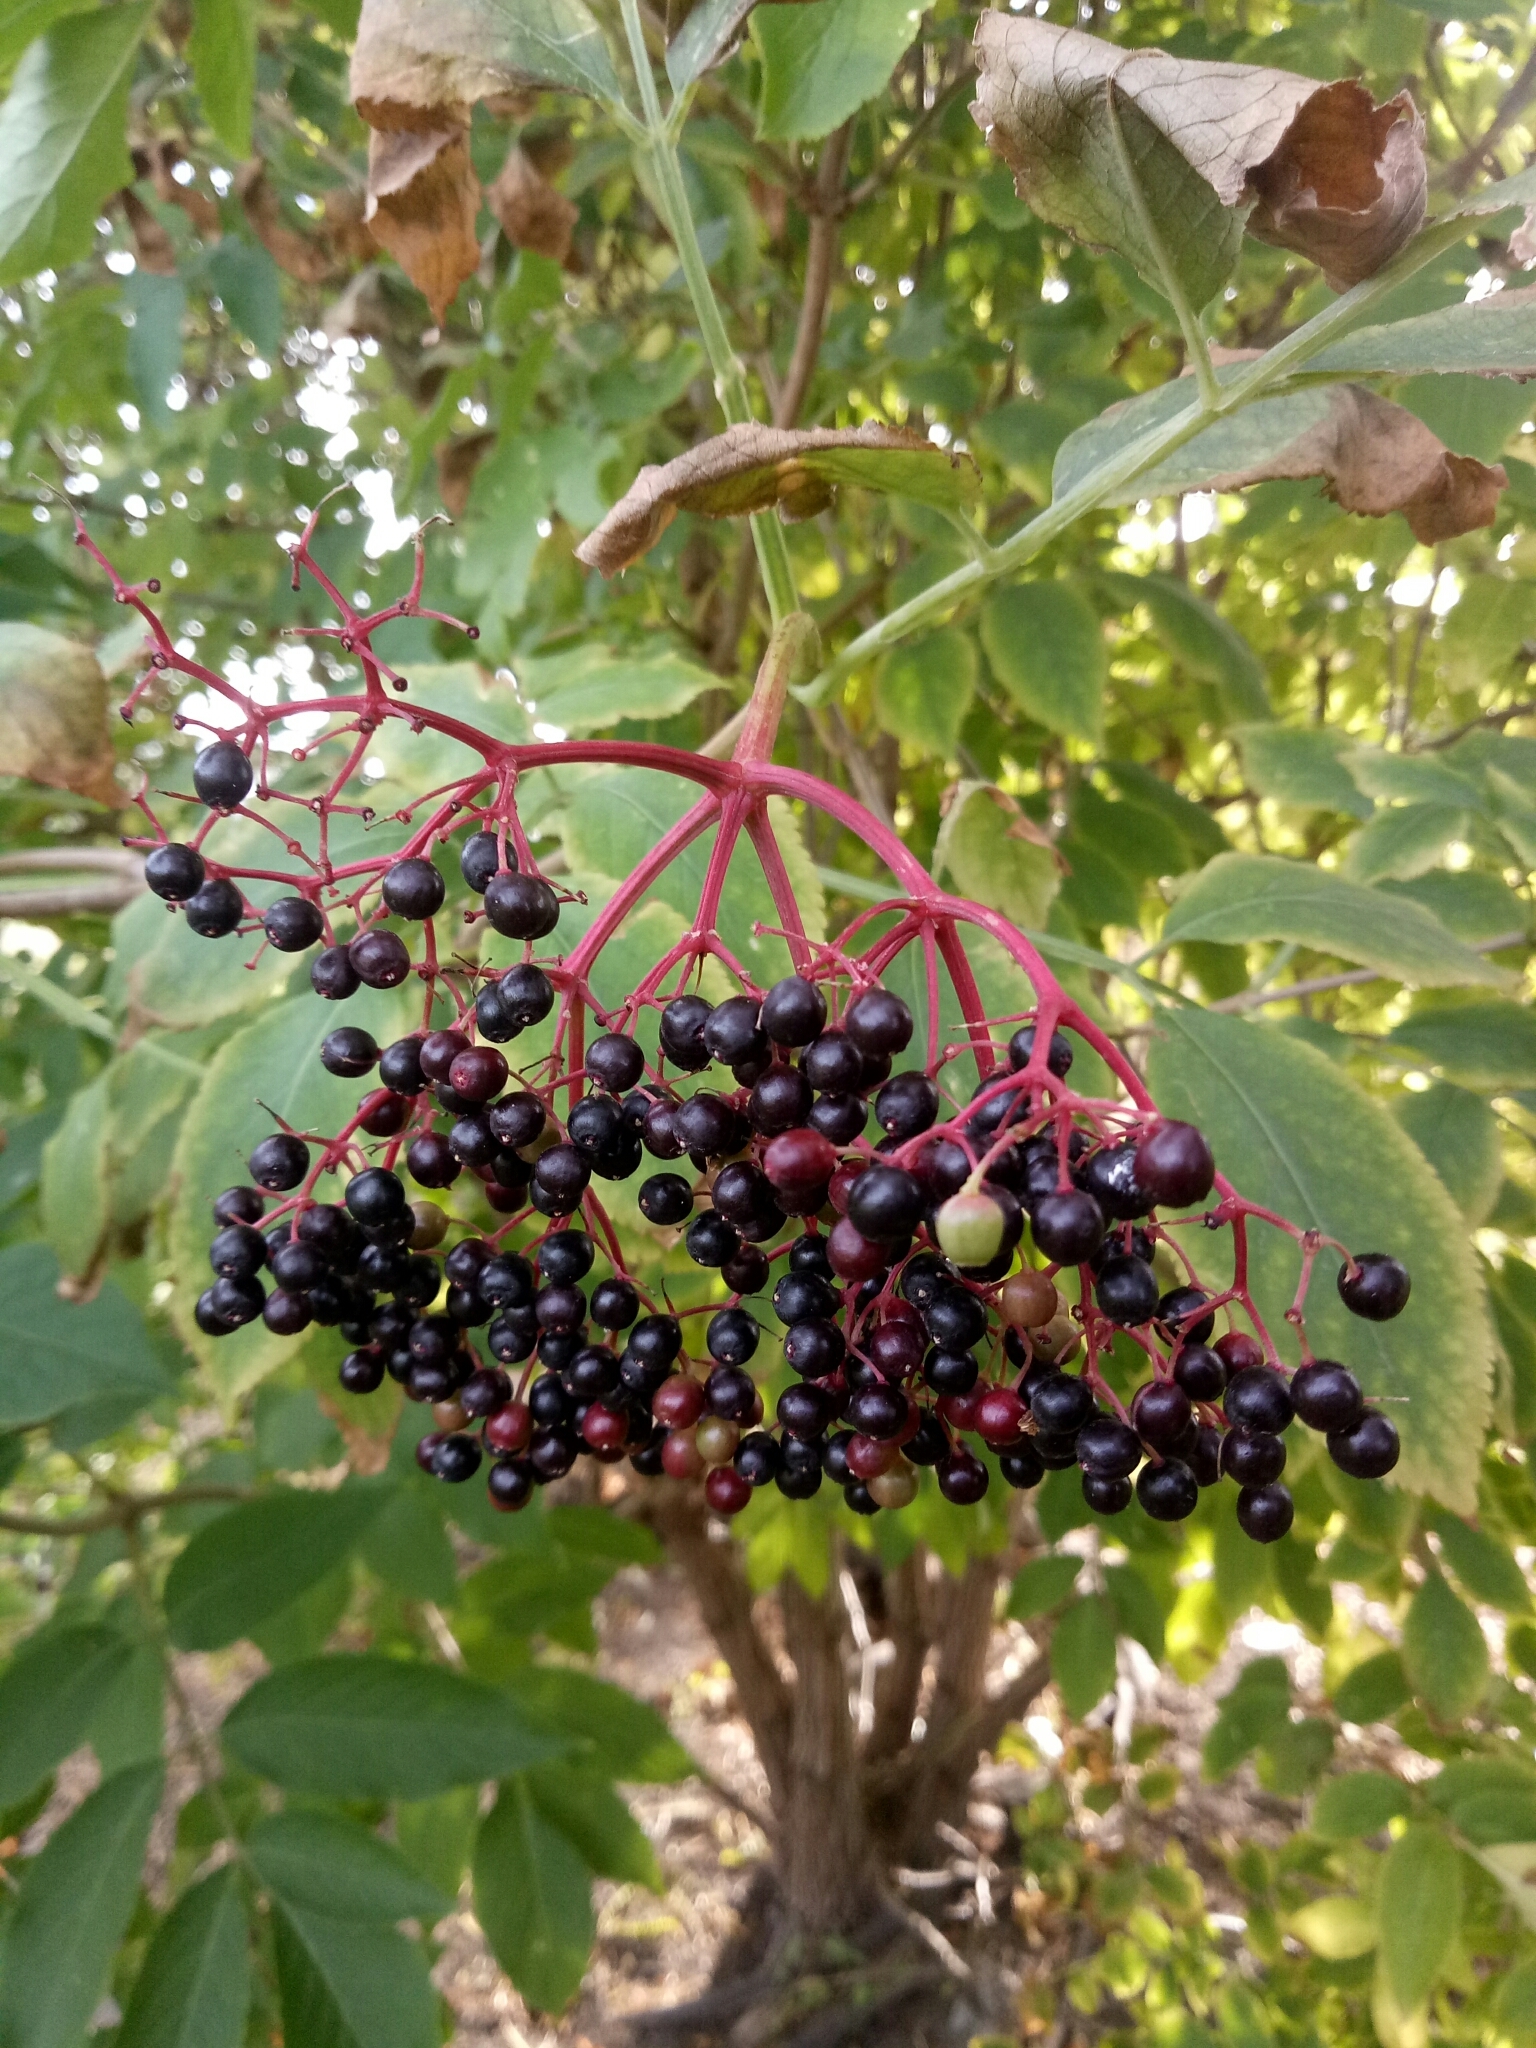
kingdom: Plantae
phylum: Tracheophyta
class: Magnoliopsida
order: Dipsacales
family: Viburnaceae
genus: Sambucus
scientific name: Sambucus nigra
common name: Elder
